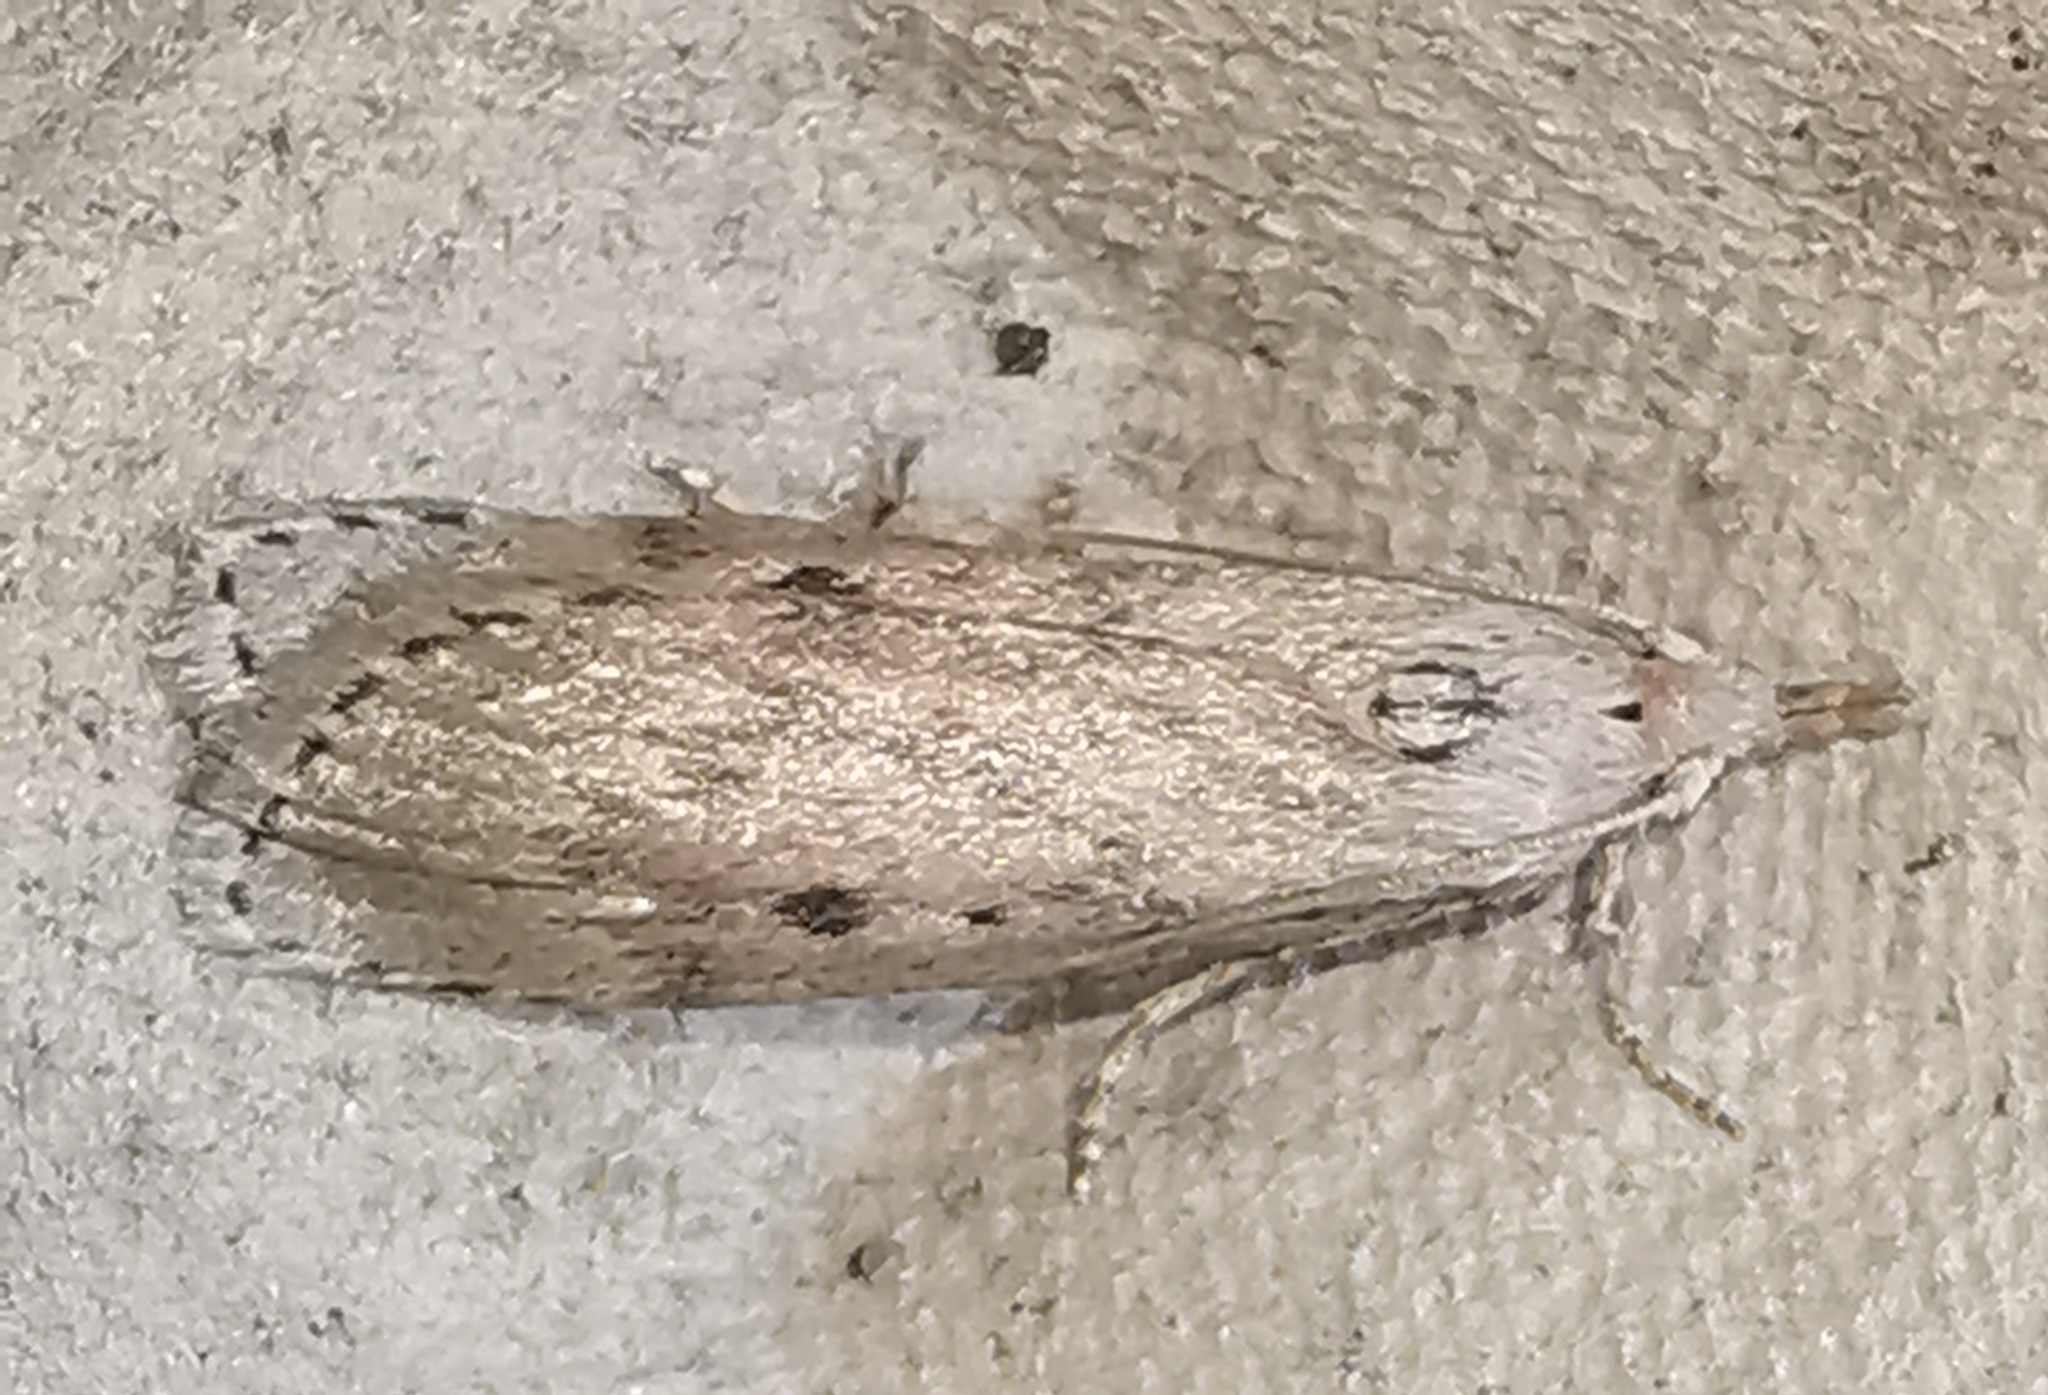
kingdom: Animalia
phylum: Arthropoda
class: Insecta
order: Lepidoptera
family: Pyralidae
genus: Aphomia
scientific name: Aphomia sociella
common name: Bee moth
